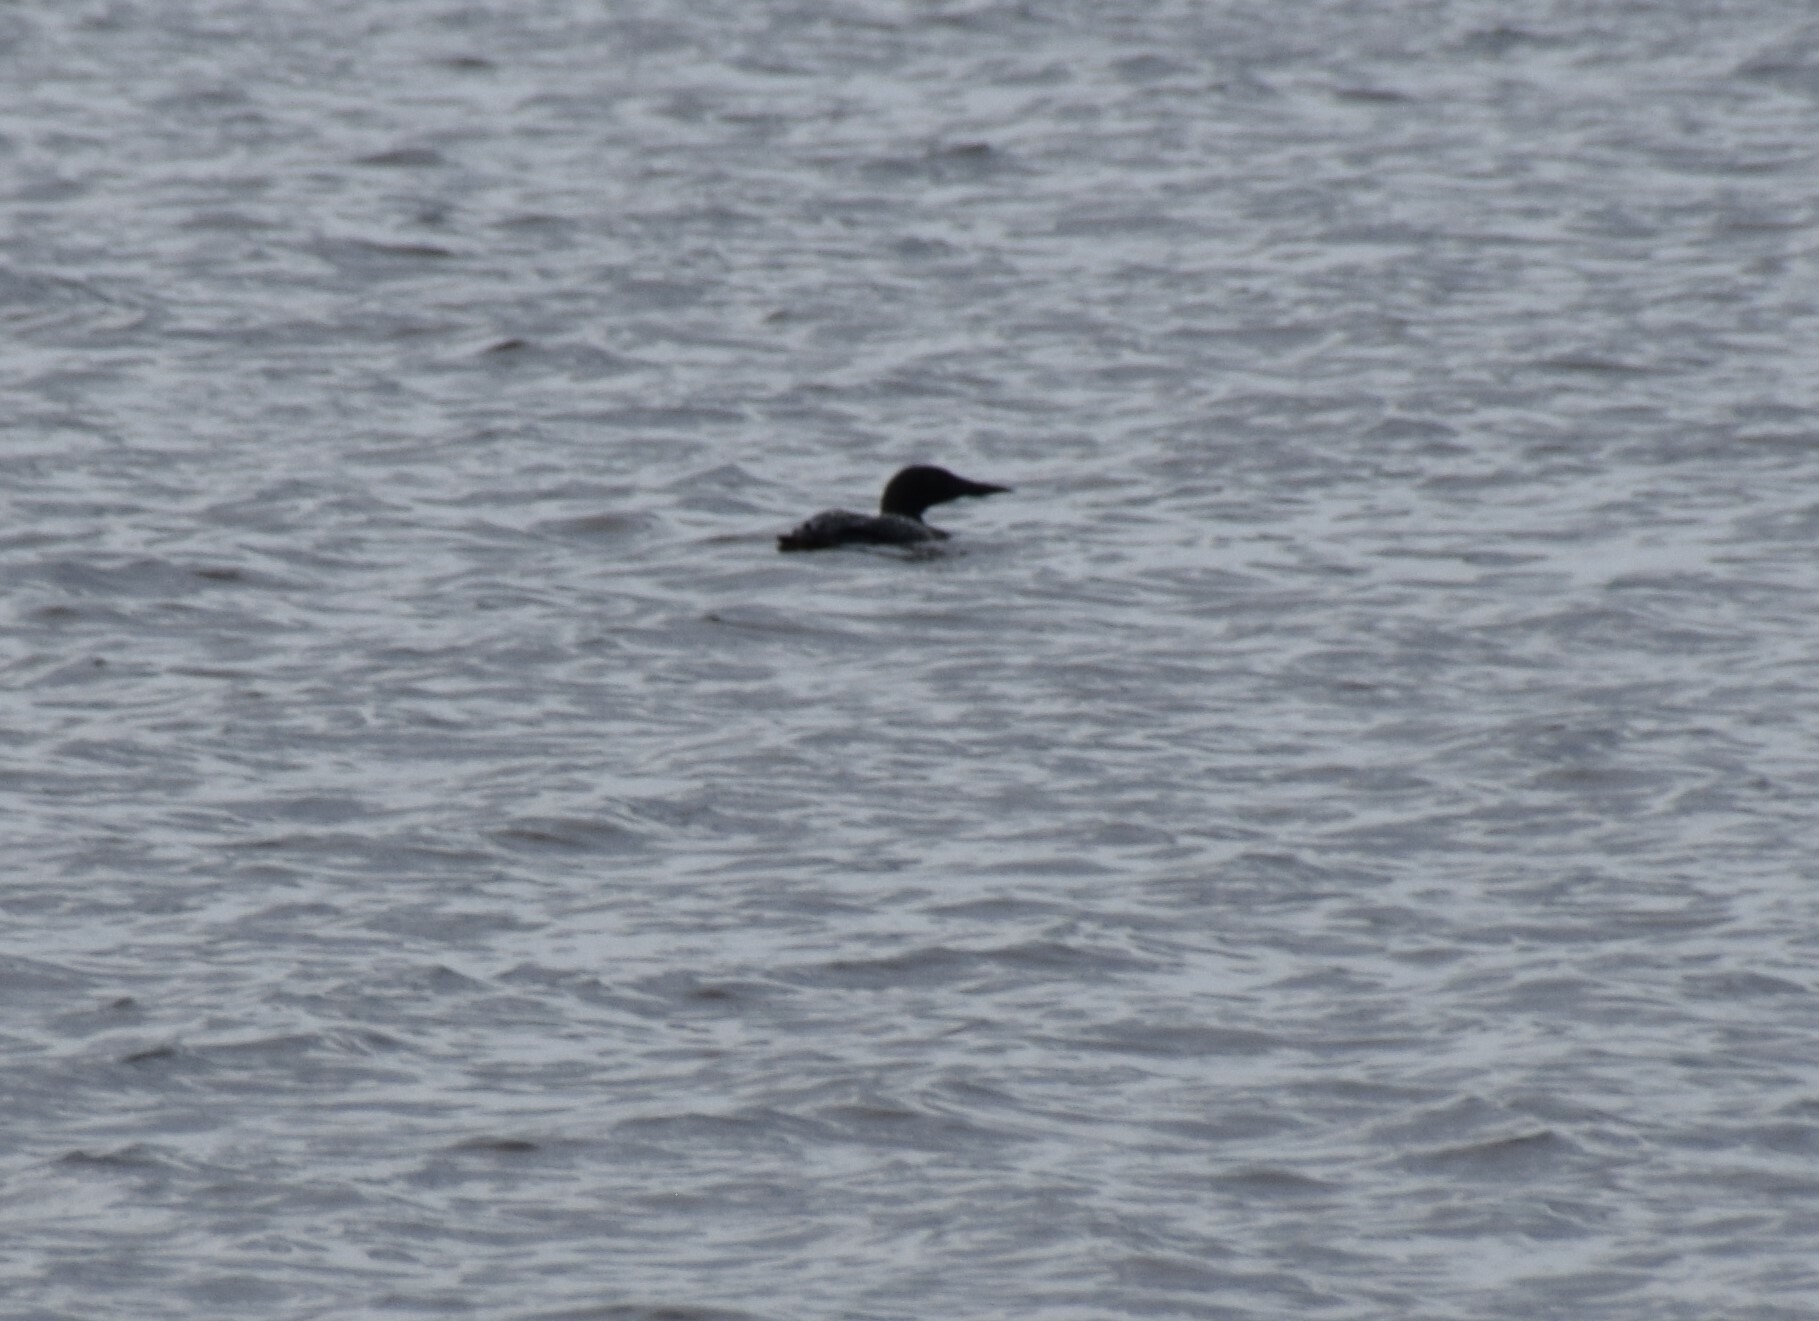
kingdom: Animalia
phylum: Chordata
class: Aves
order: Gaviiformes
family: Gaviidae
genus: Gavia
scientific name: Gavia immer
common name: Common loon
